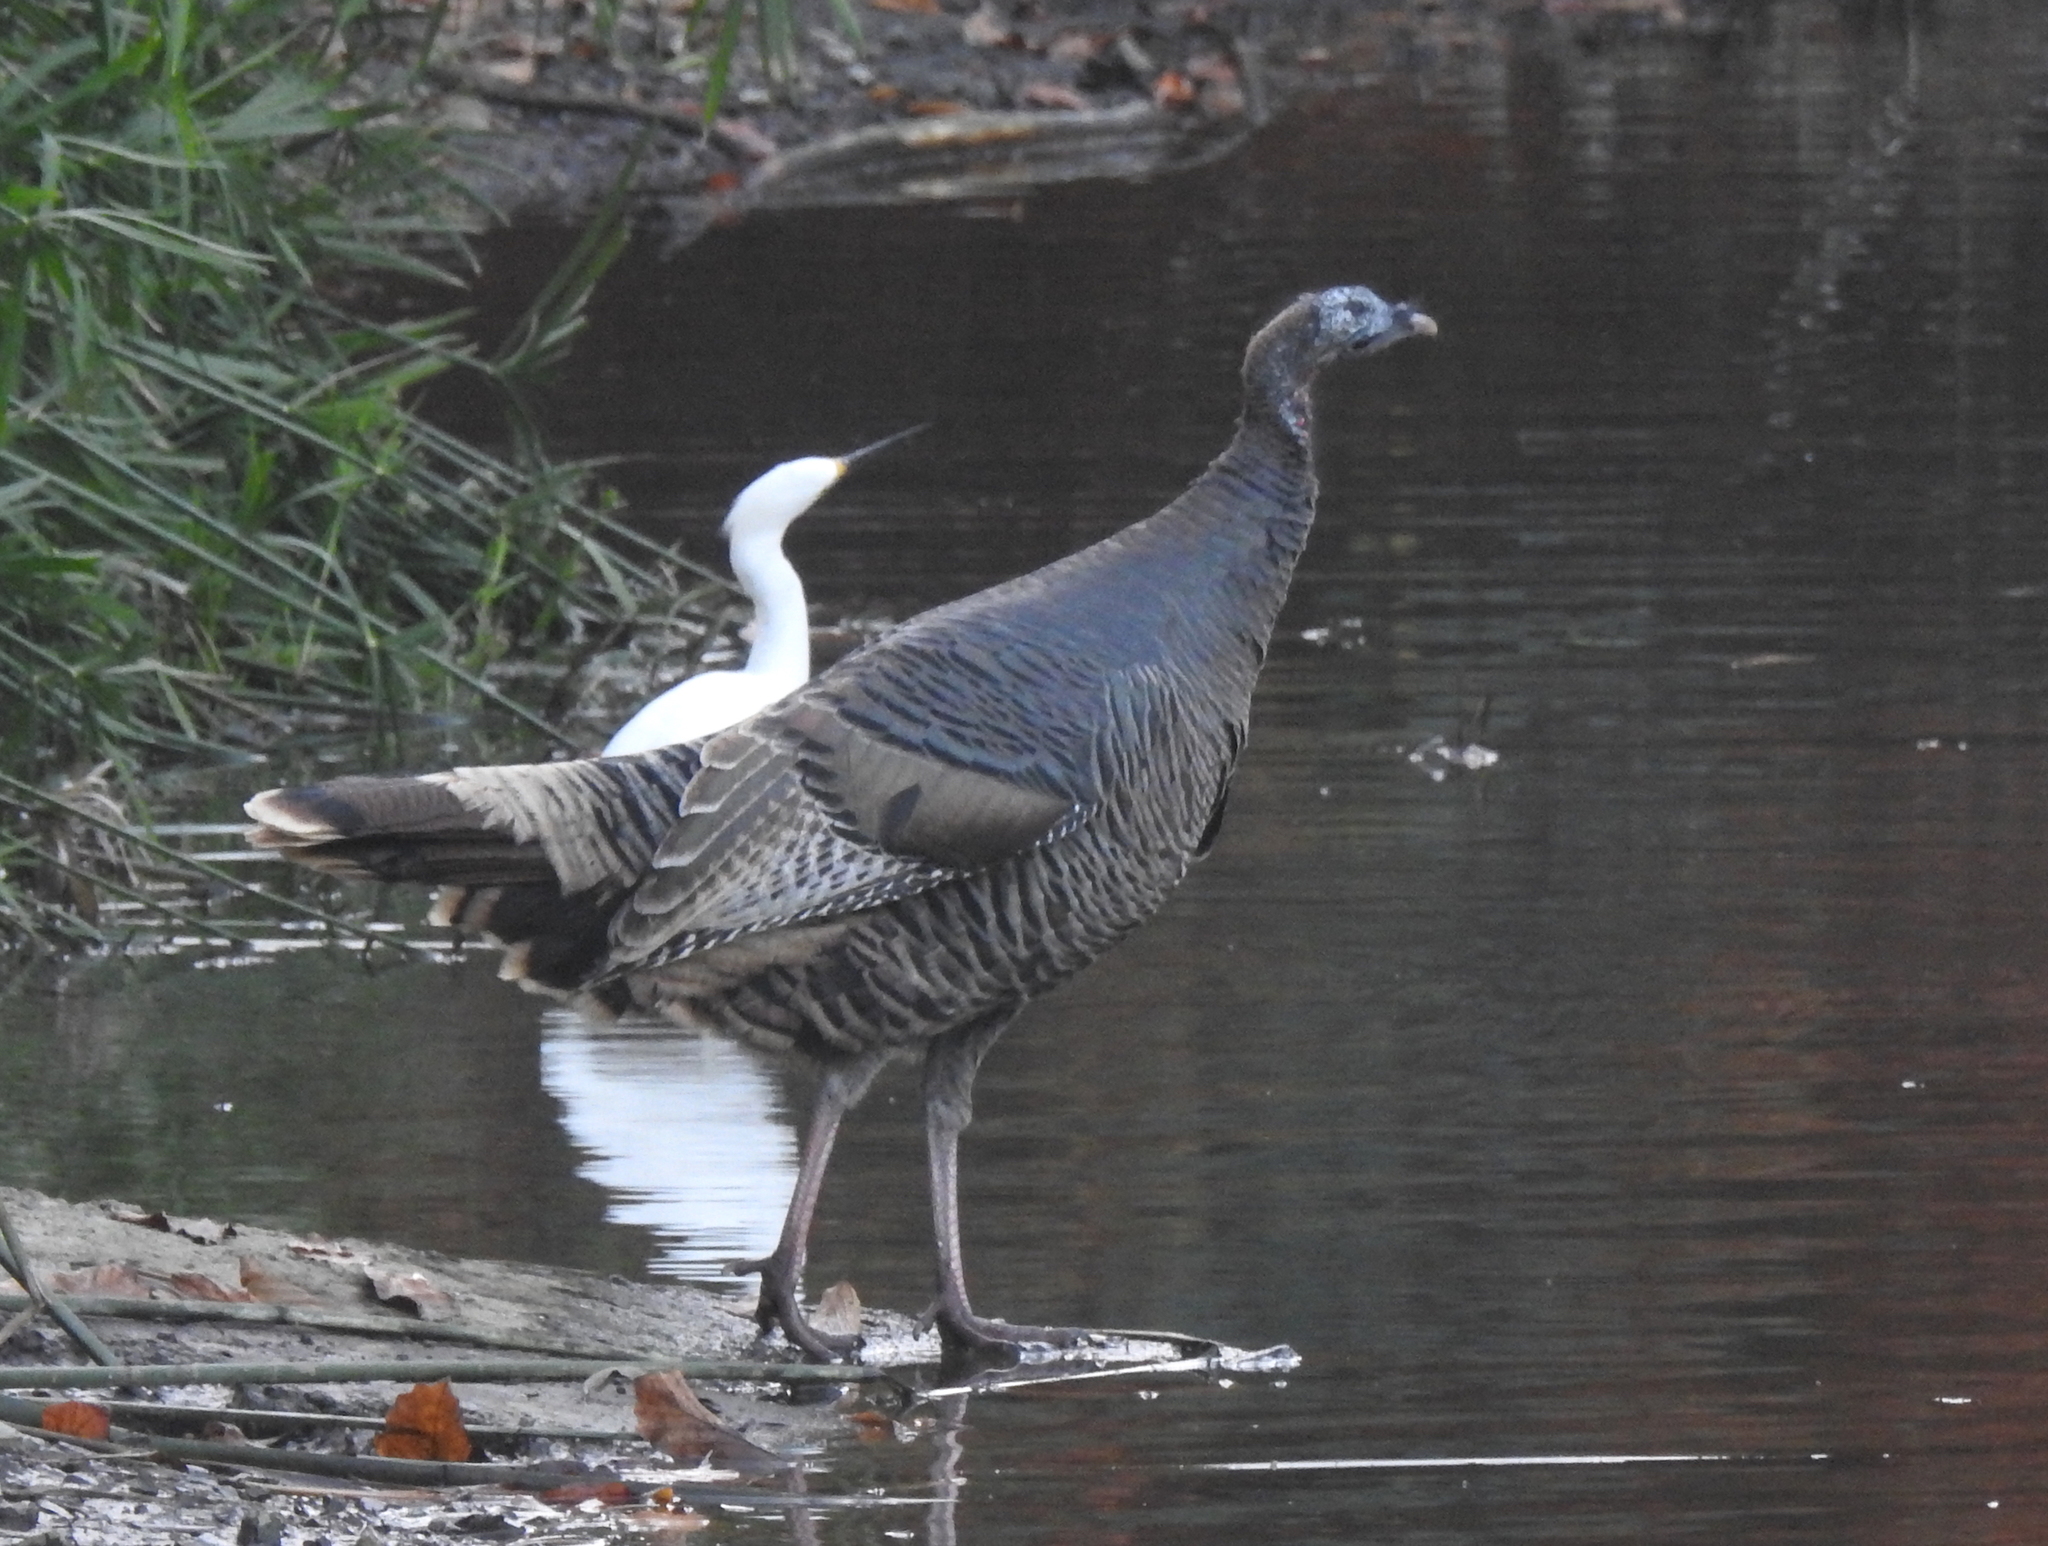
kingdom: Animalia
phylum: Chordata
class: Aves
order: Pelecaniformes
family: Ardeidae
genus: Egretta
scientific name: Egretta thula
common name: Snowy egret
